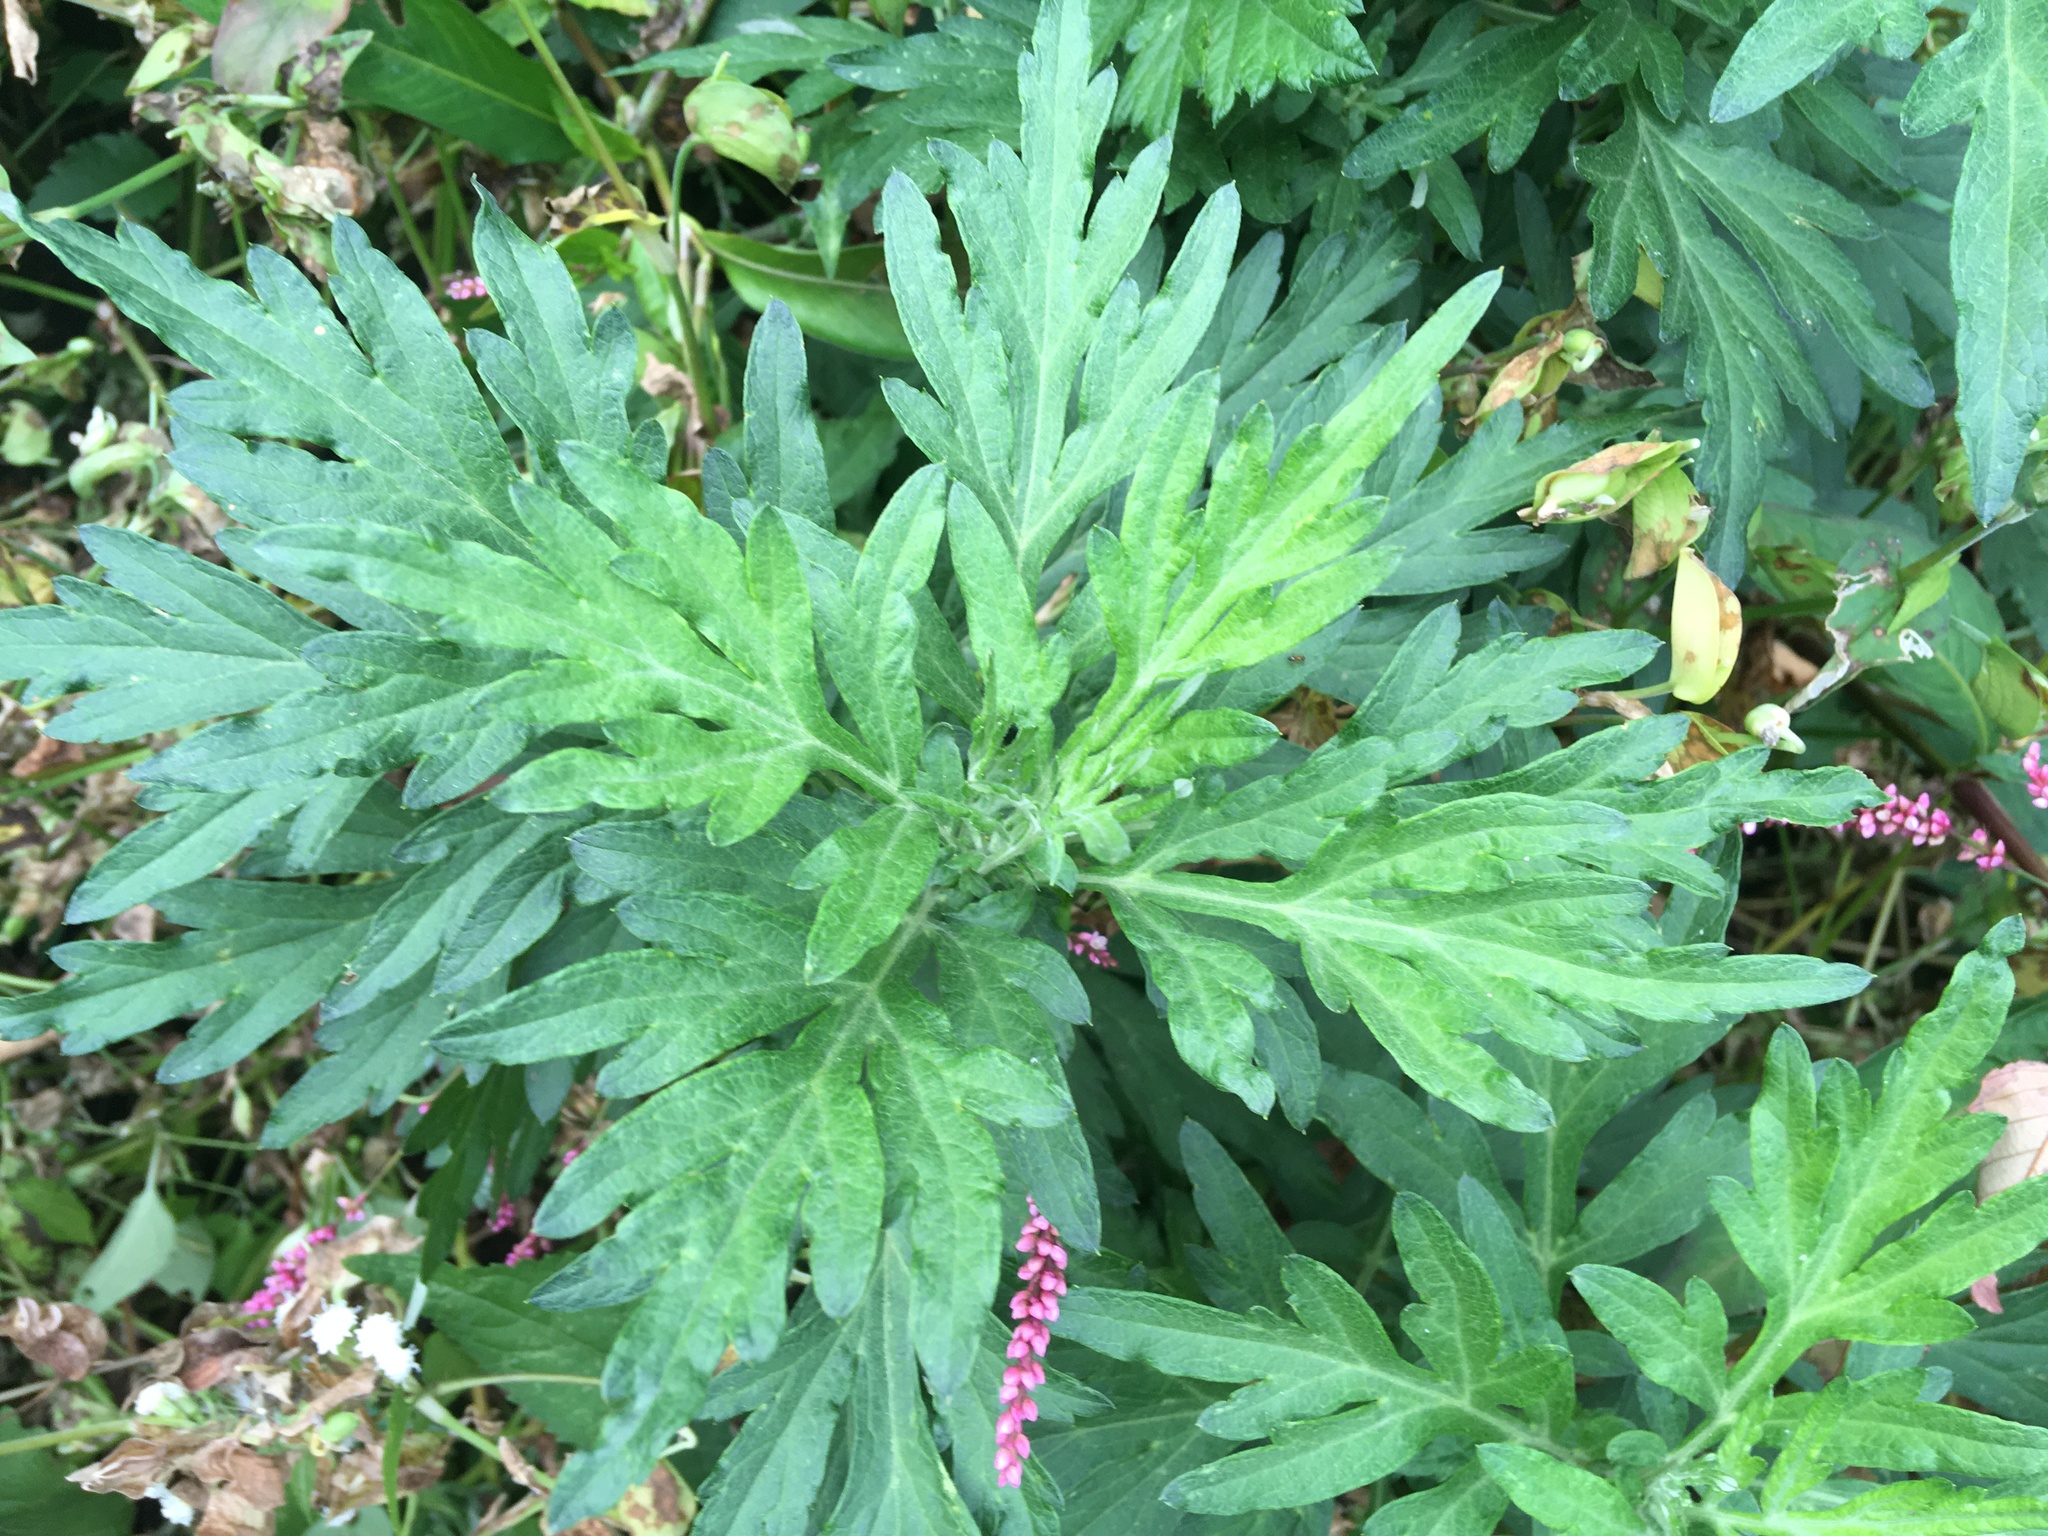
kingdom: Plantae
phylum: Tracheophyta
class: Magnoliopsida
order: Asterales
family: Asteraceae
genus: Artemisia
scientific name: Artemisia vulgaris
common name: Mugwort
